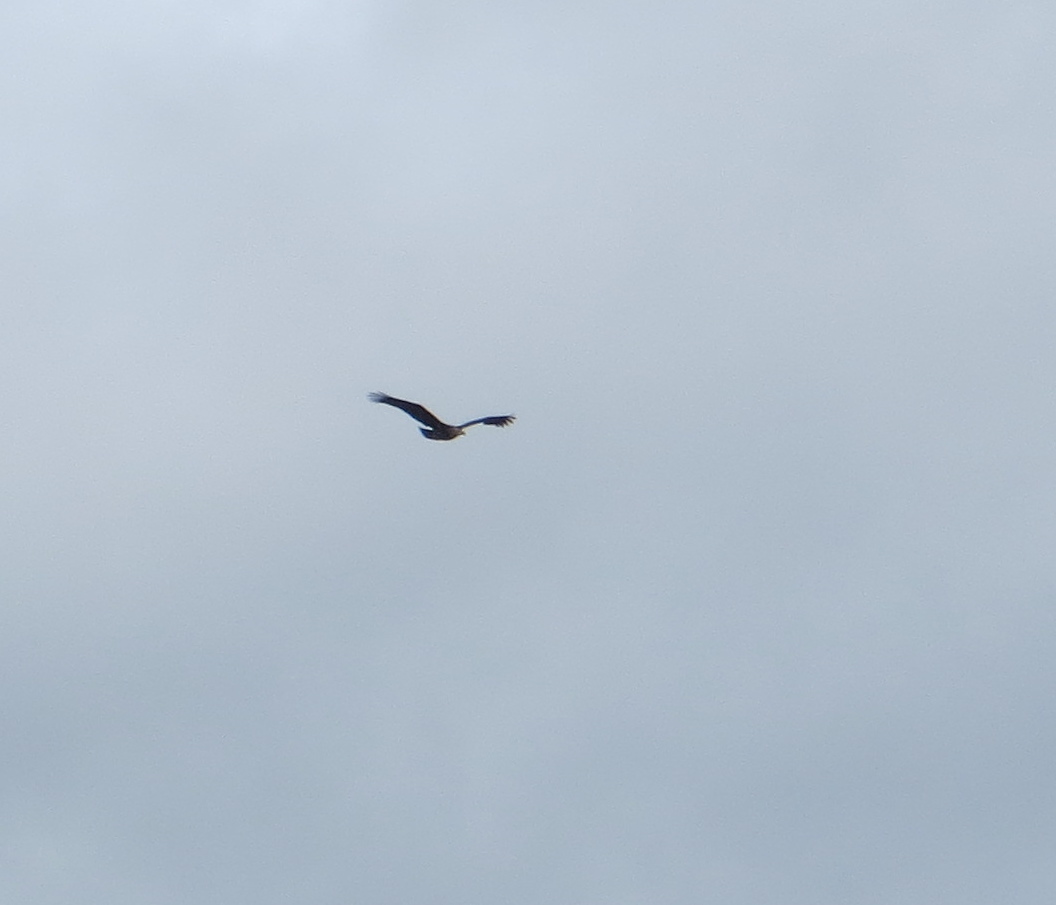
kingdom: Animalia
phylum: Chordata
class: Aves
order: Accipitriformes
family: Accipitridae
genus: Haliaeetus
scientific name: Haliaeetus leucocephalus
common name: Bald eagle
